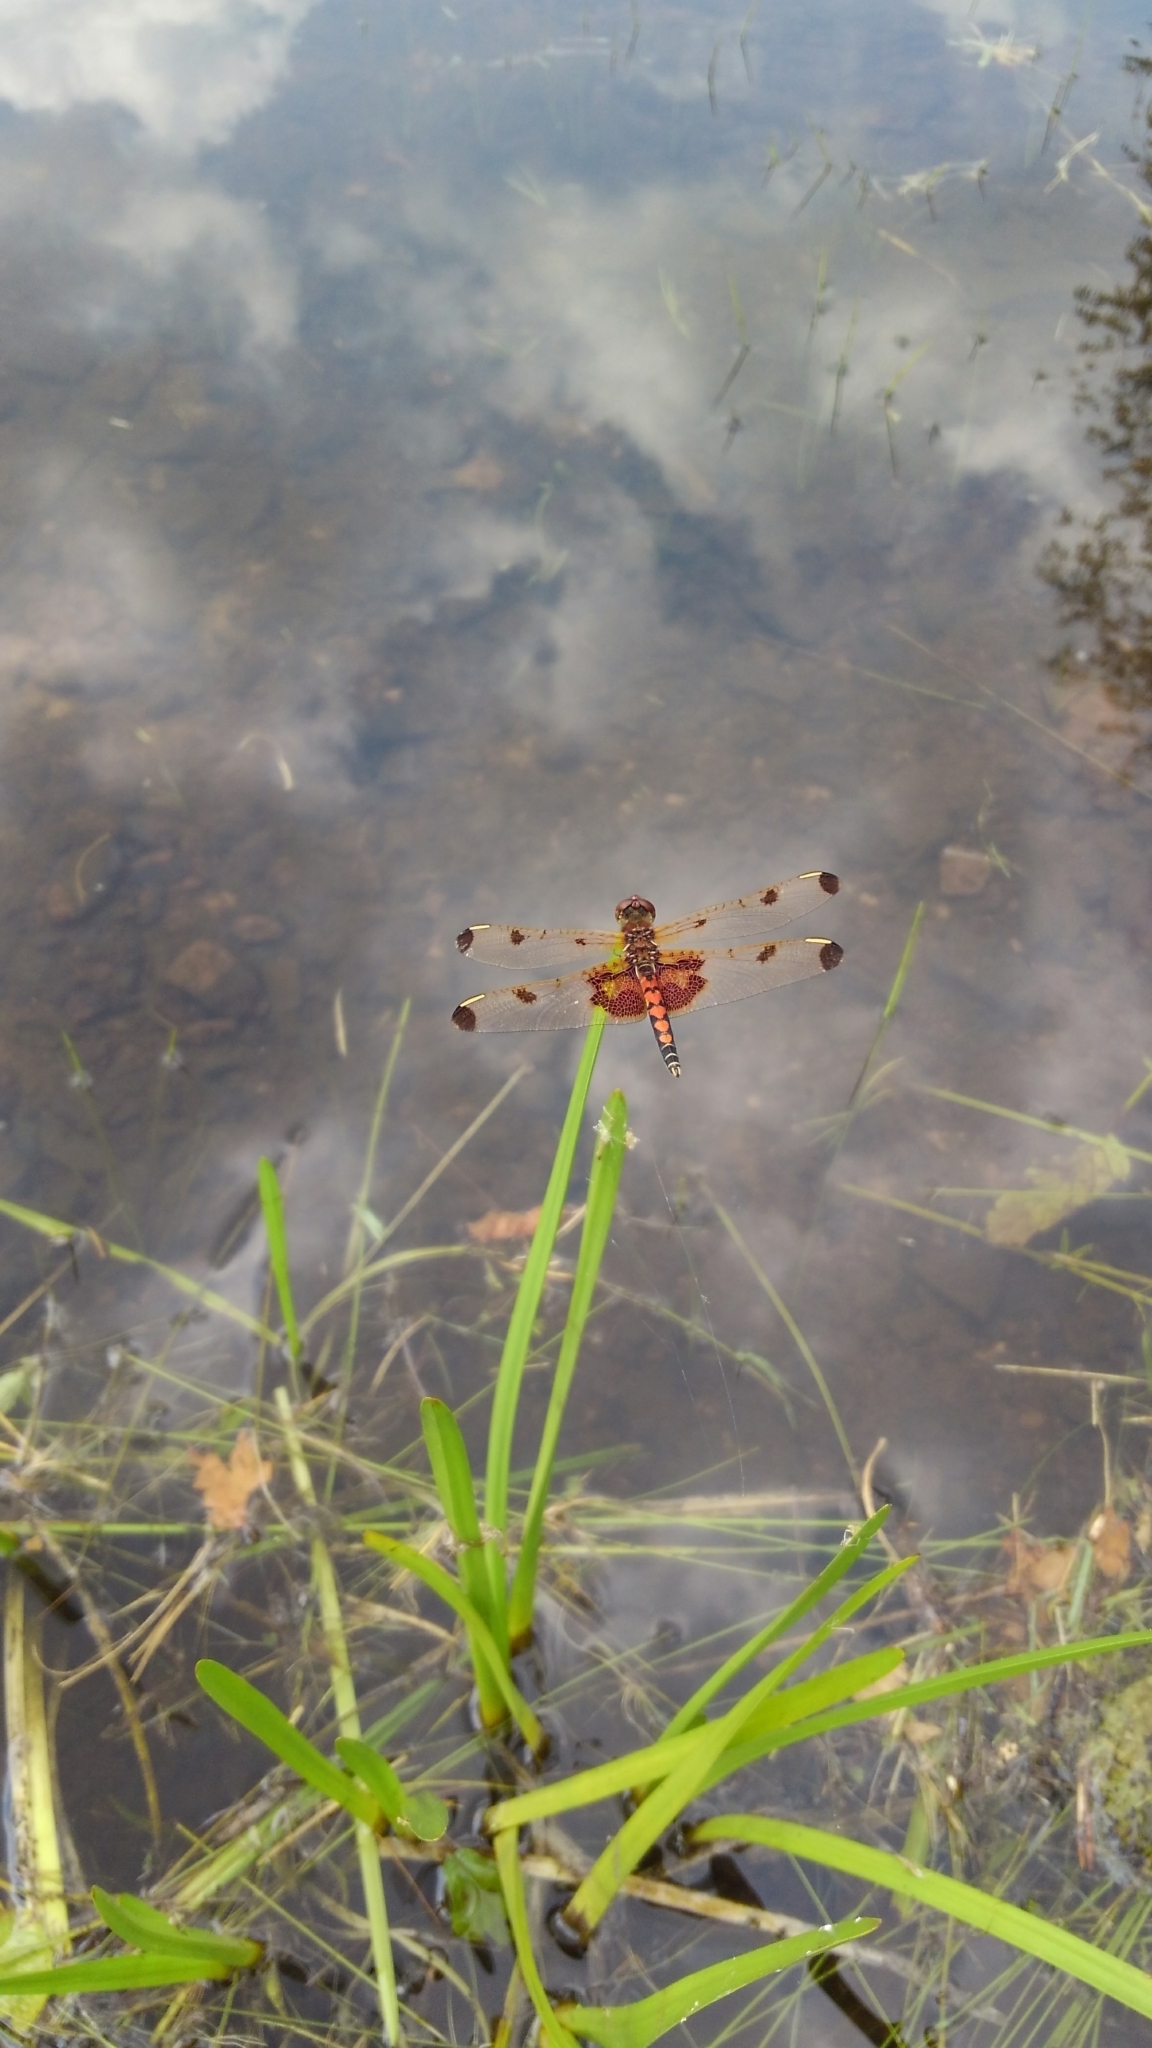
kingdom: Animalia
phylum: Arthropoda
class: Insecta
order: Odonata
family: Libellulidae
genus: Celithemis
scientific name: Celithemis elisa
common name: Calico pennant
